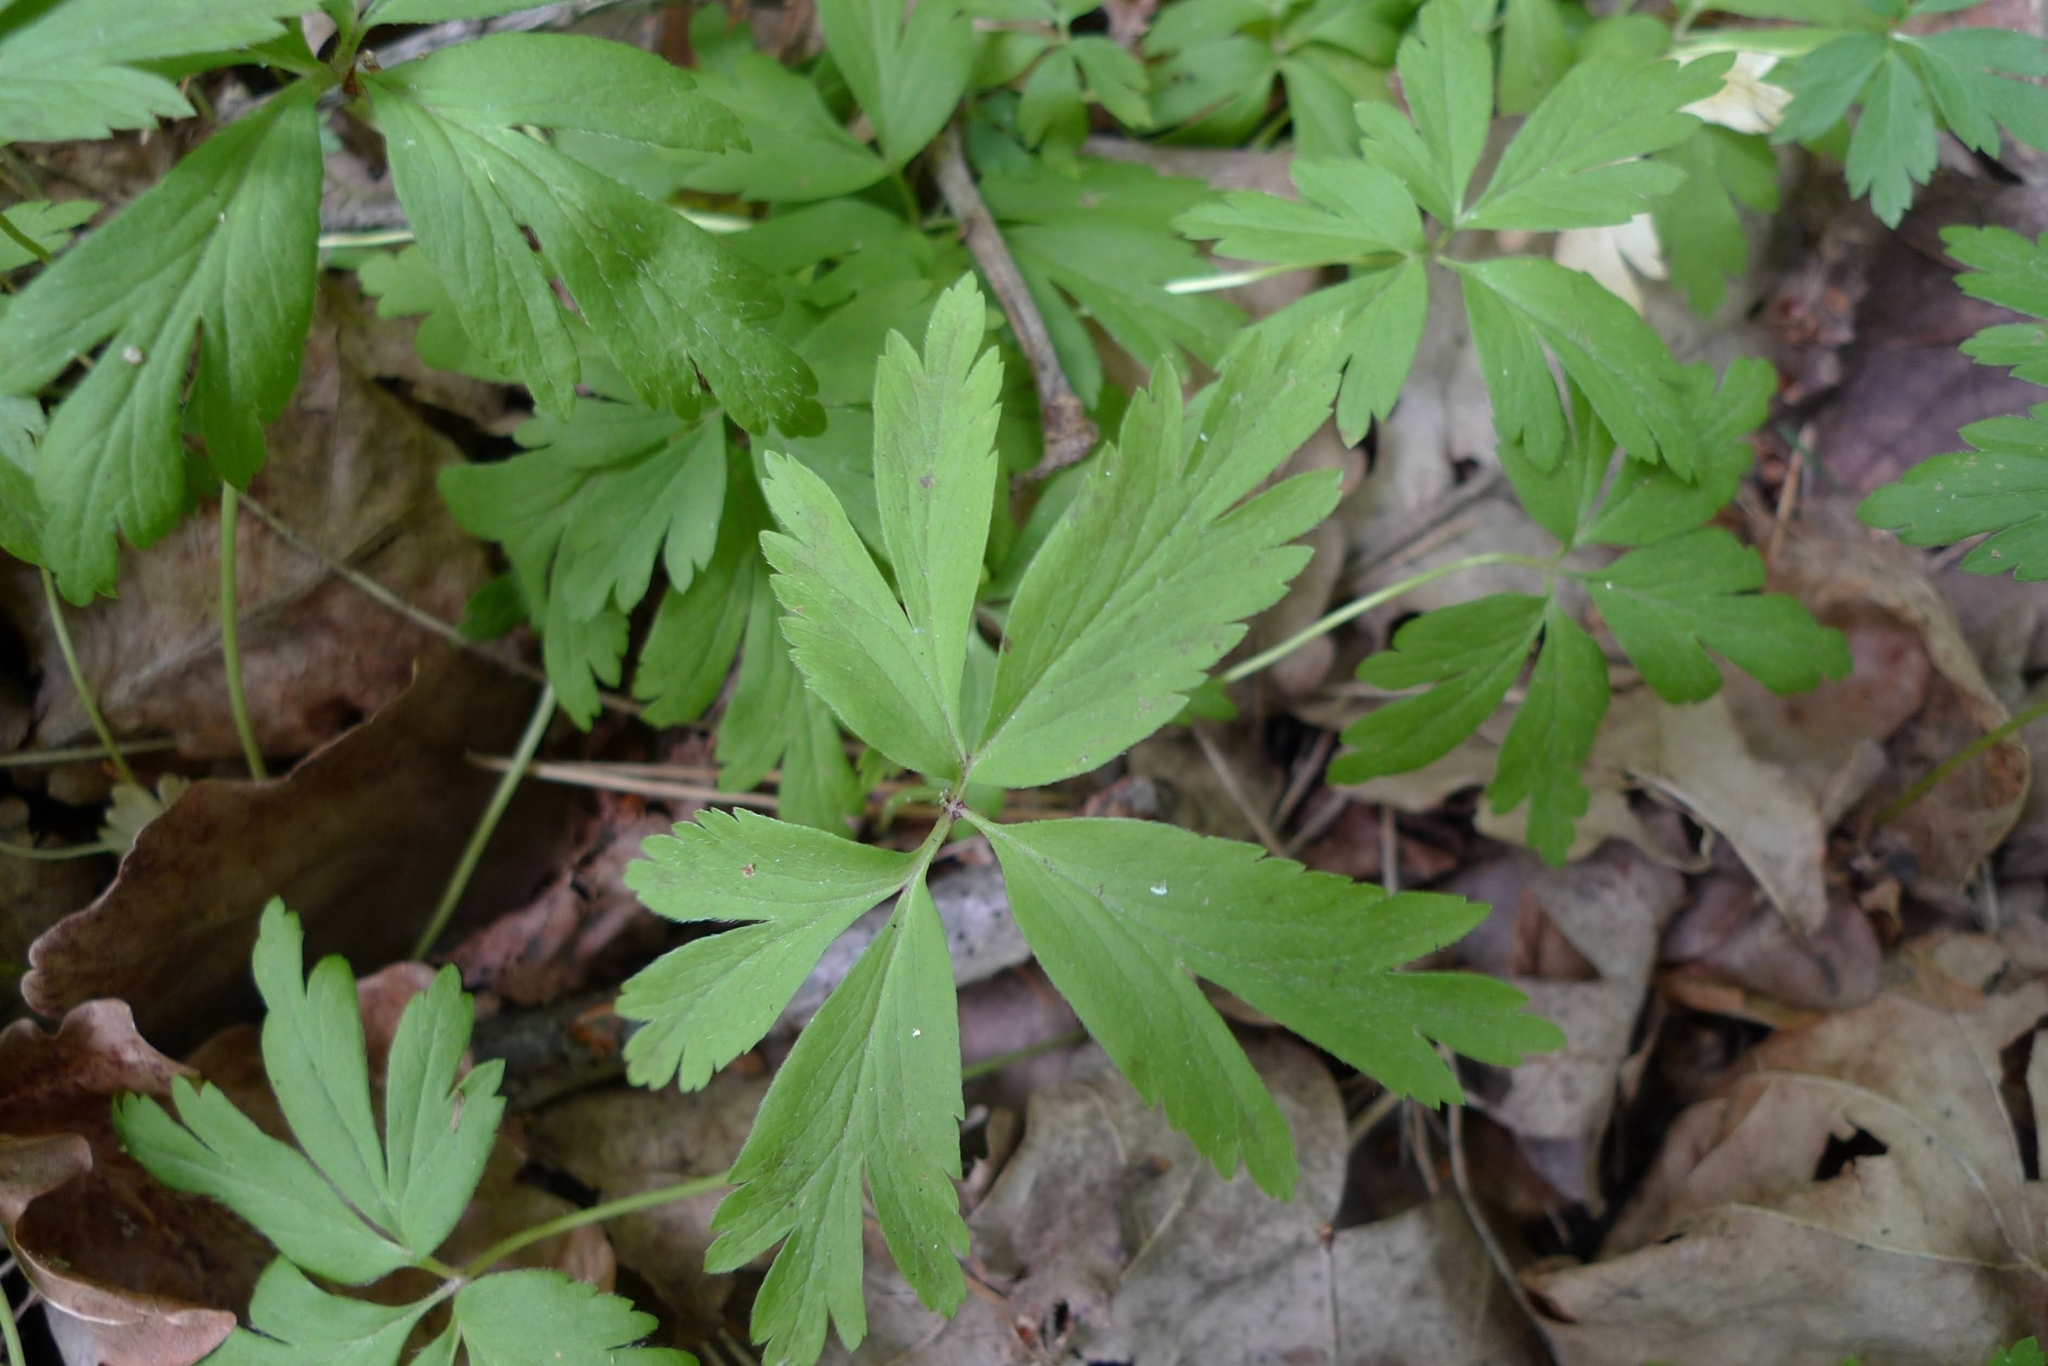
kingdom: Plantae
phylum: Tracheophyta
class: Magnoliopsida
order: Ranunculales
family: Ranunculaceae
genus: Anemone
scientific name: Anemone nemorosa
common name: Wood anemone
